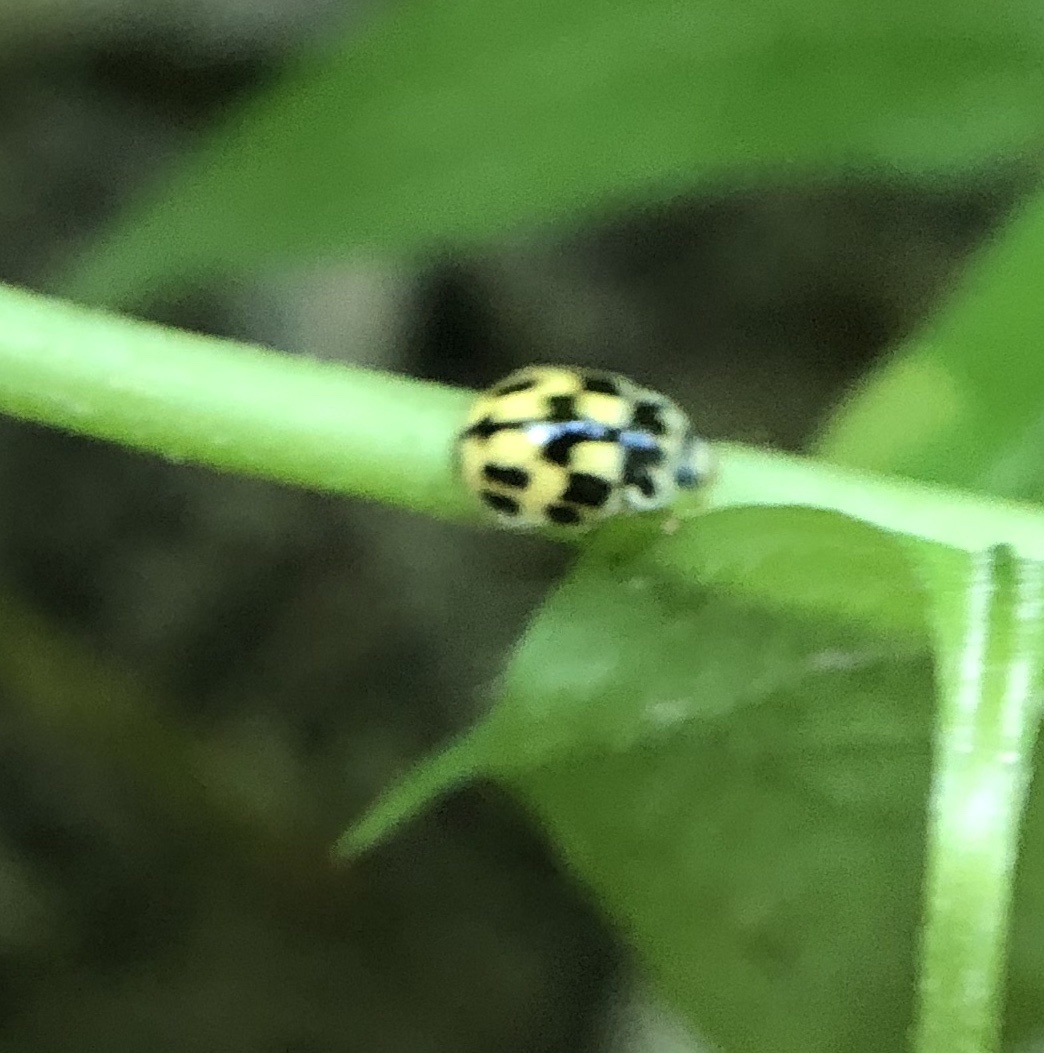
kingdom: Animalia
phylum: Arthropoda
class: Insecta
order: Coleoptera
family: Coccinellidae
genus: Propylaea
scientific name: Propylaea quatuordecimpunctata
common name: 14-spotted ladybird beetle
